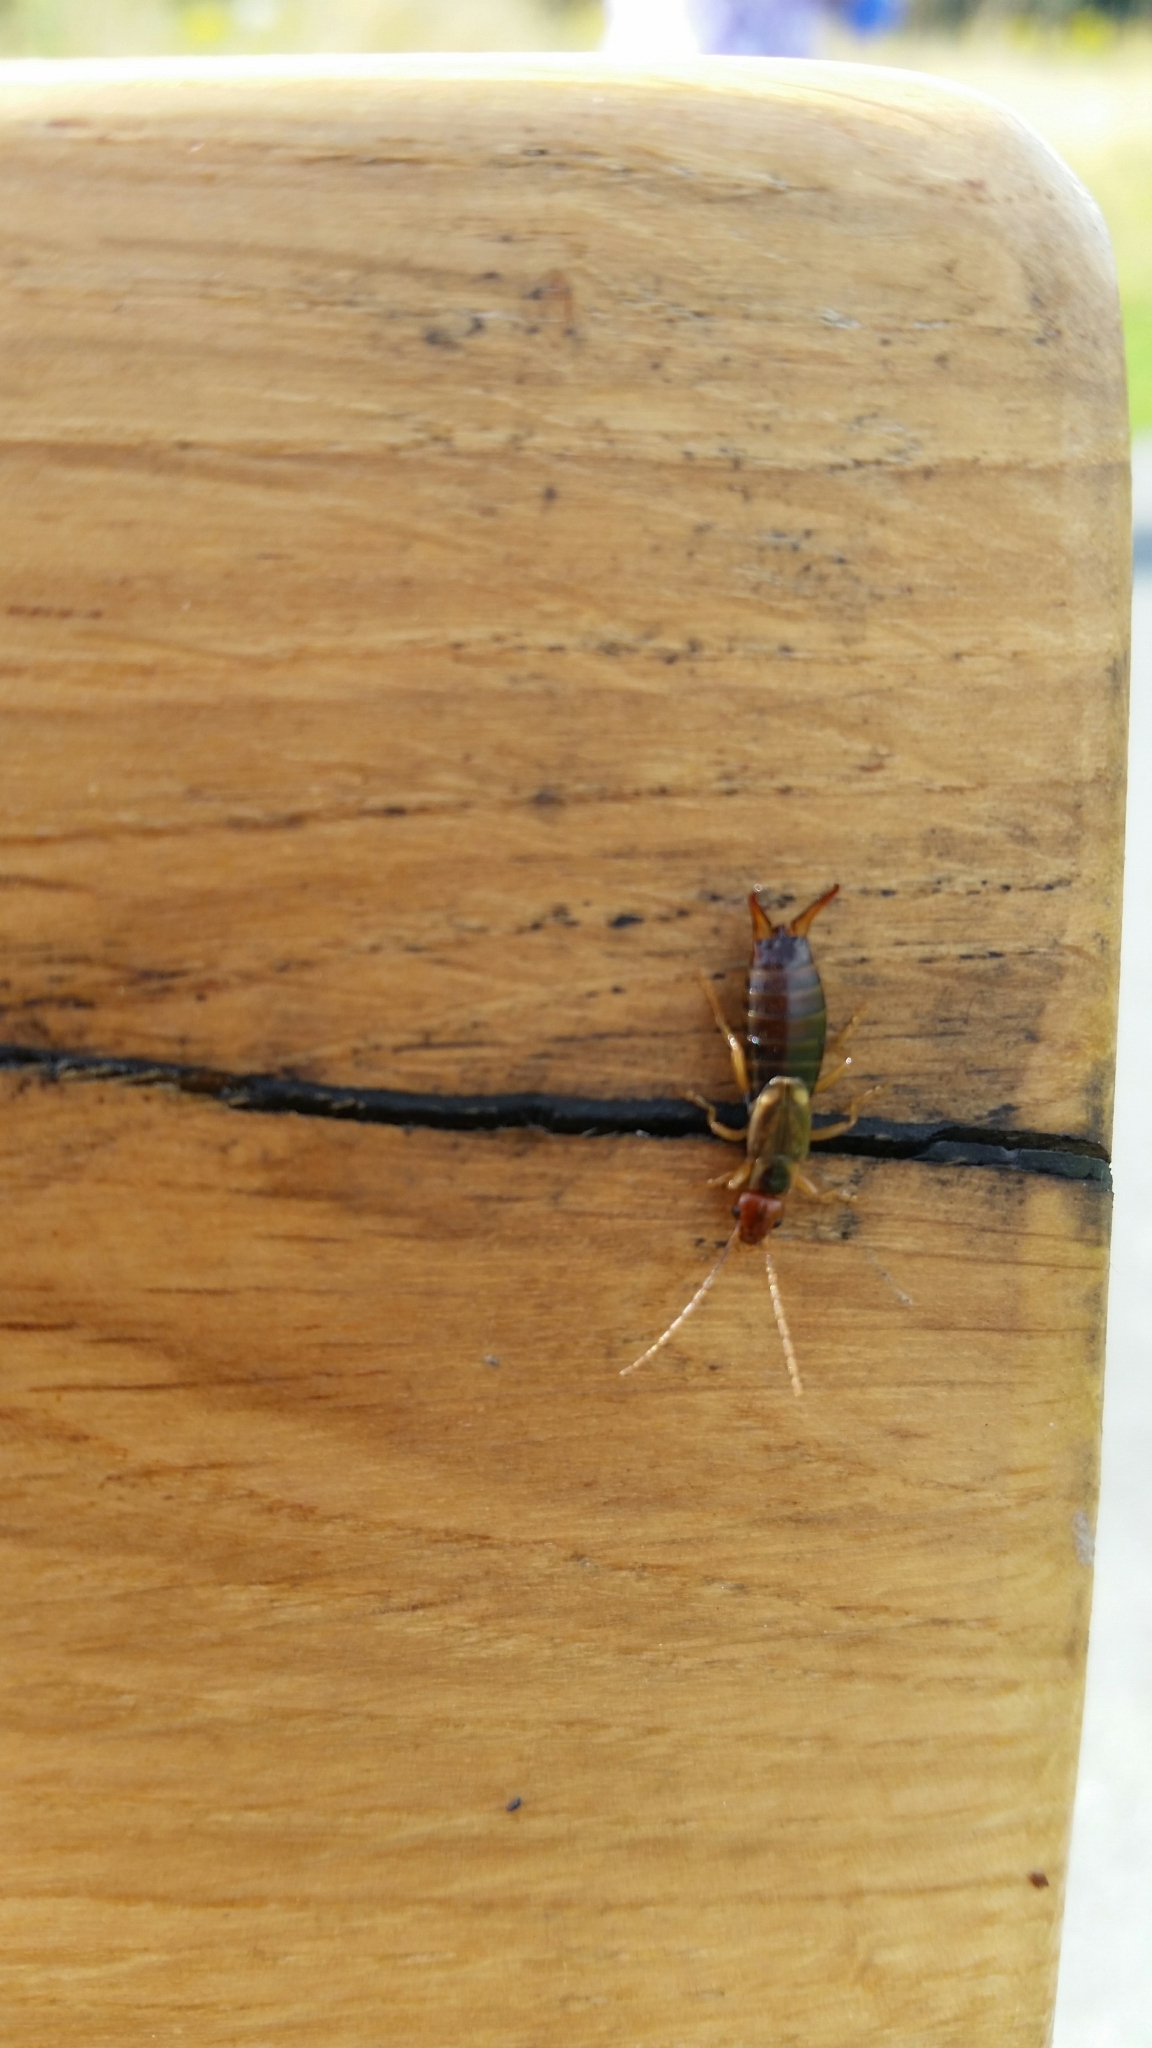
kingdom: Animalia
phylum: Arthropoda
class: Insecta
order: Dermaptera
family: Forficulidae
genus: Forficula
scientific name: Forficula
